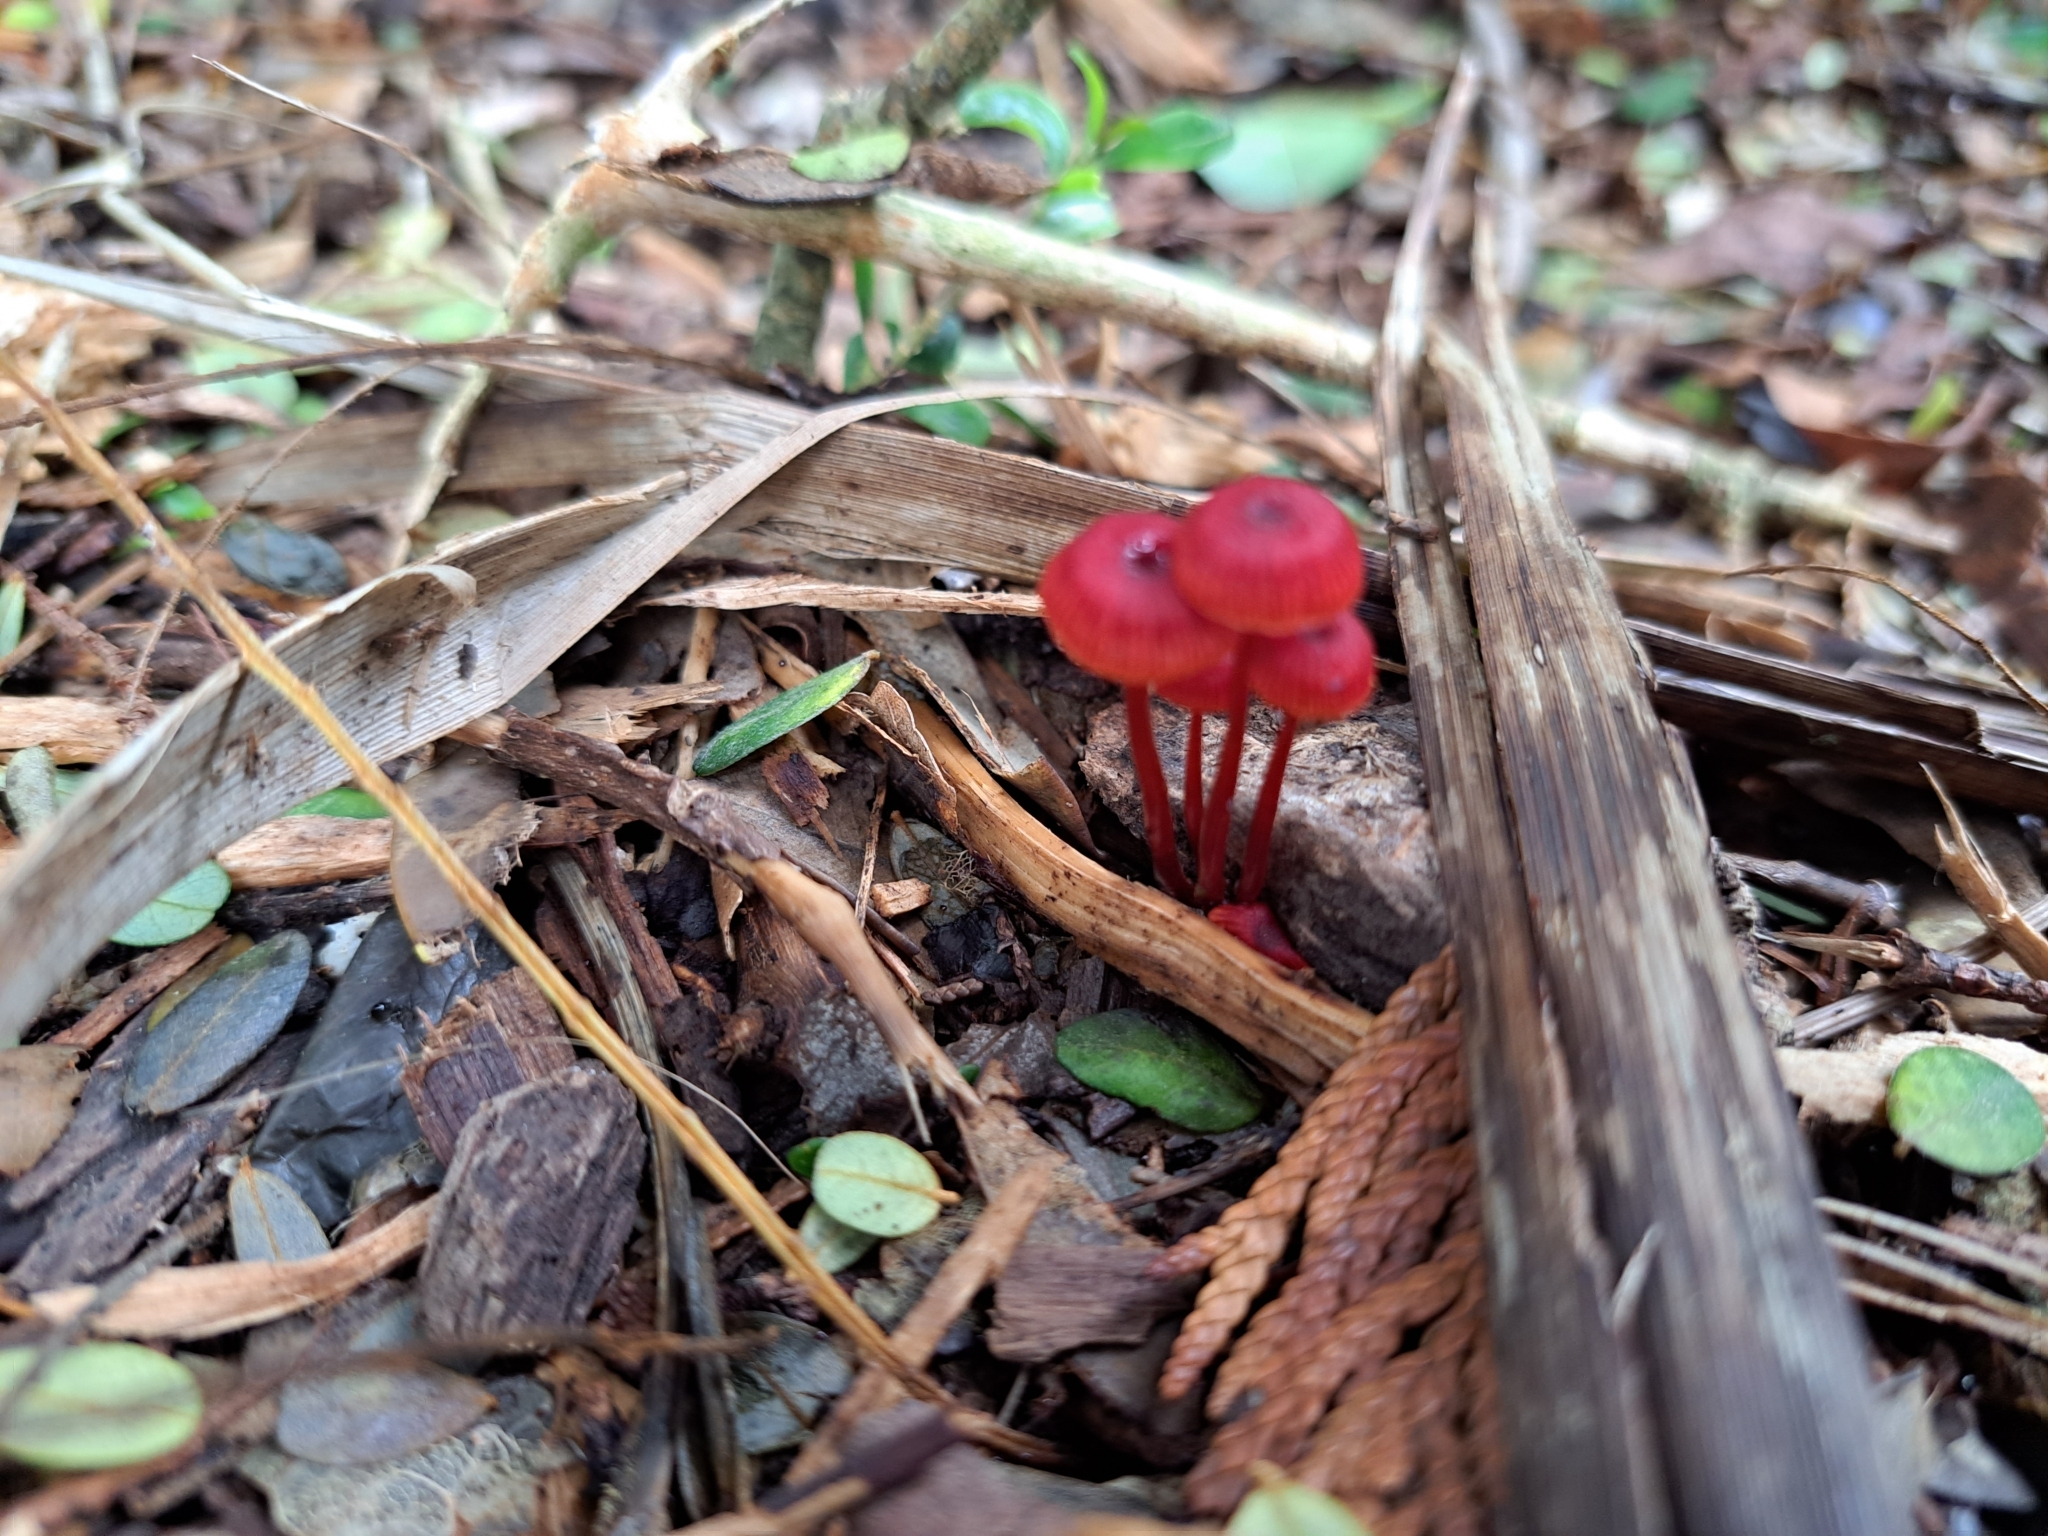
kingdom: Fungi
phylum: Basidiomycota
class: Agaricomycetes
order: Agaricales
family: Mycenaceae
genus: Cruentomycena
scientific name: Cruentomycena viscidocruenta
